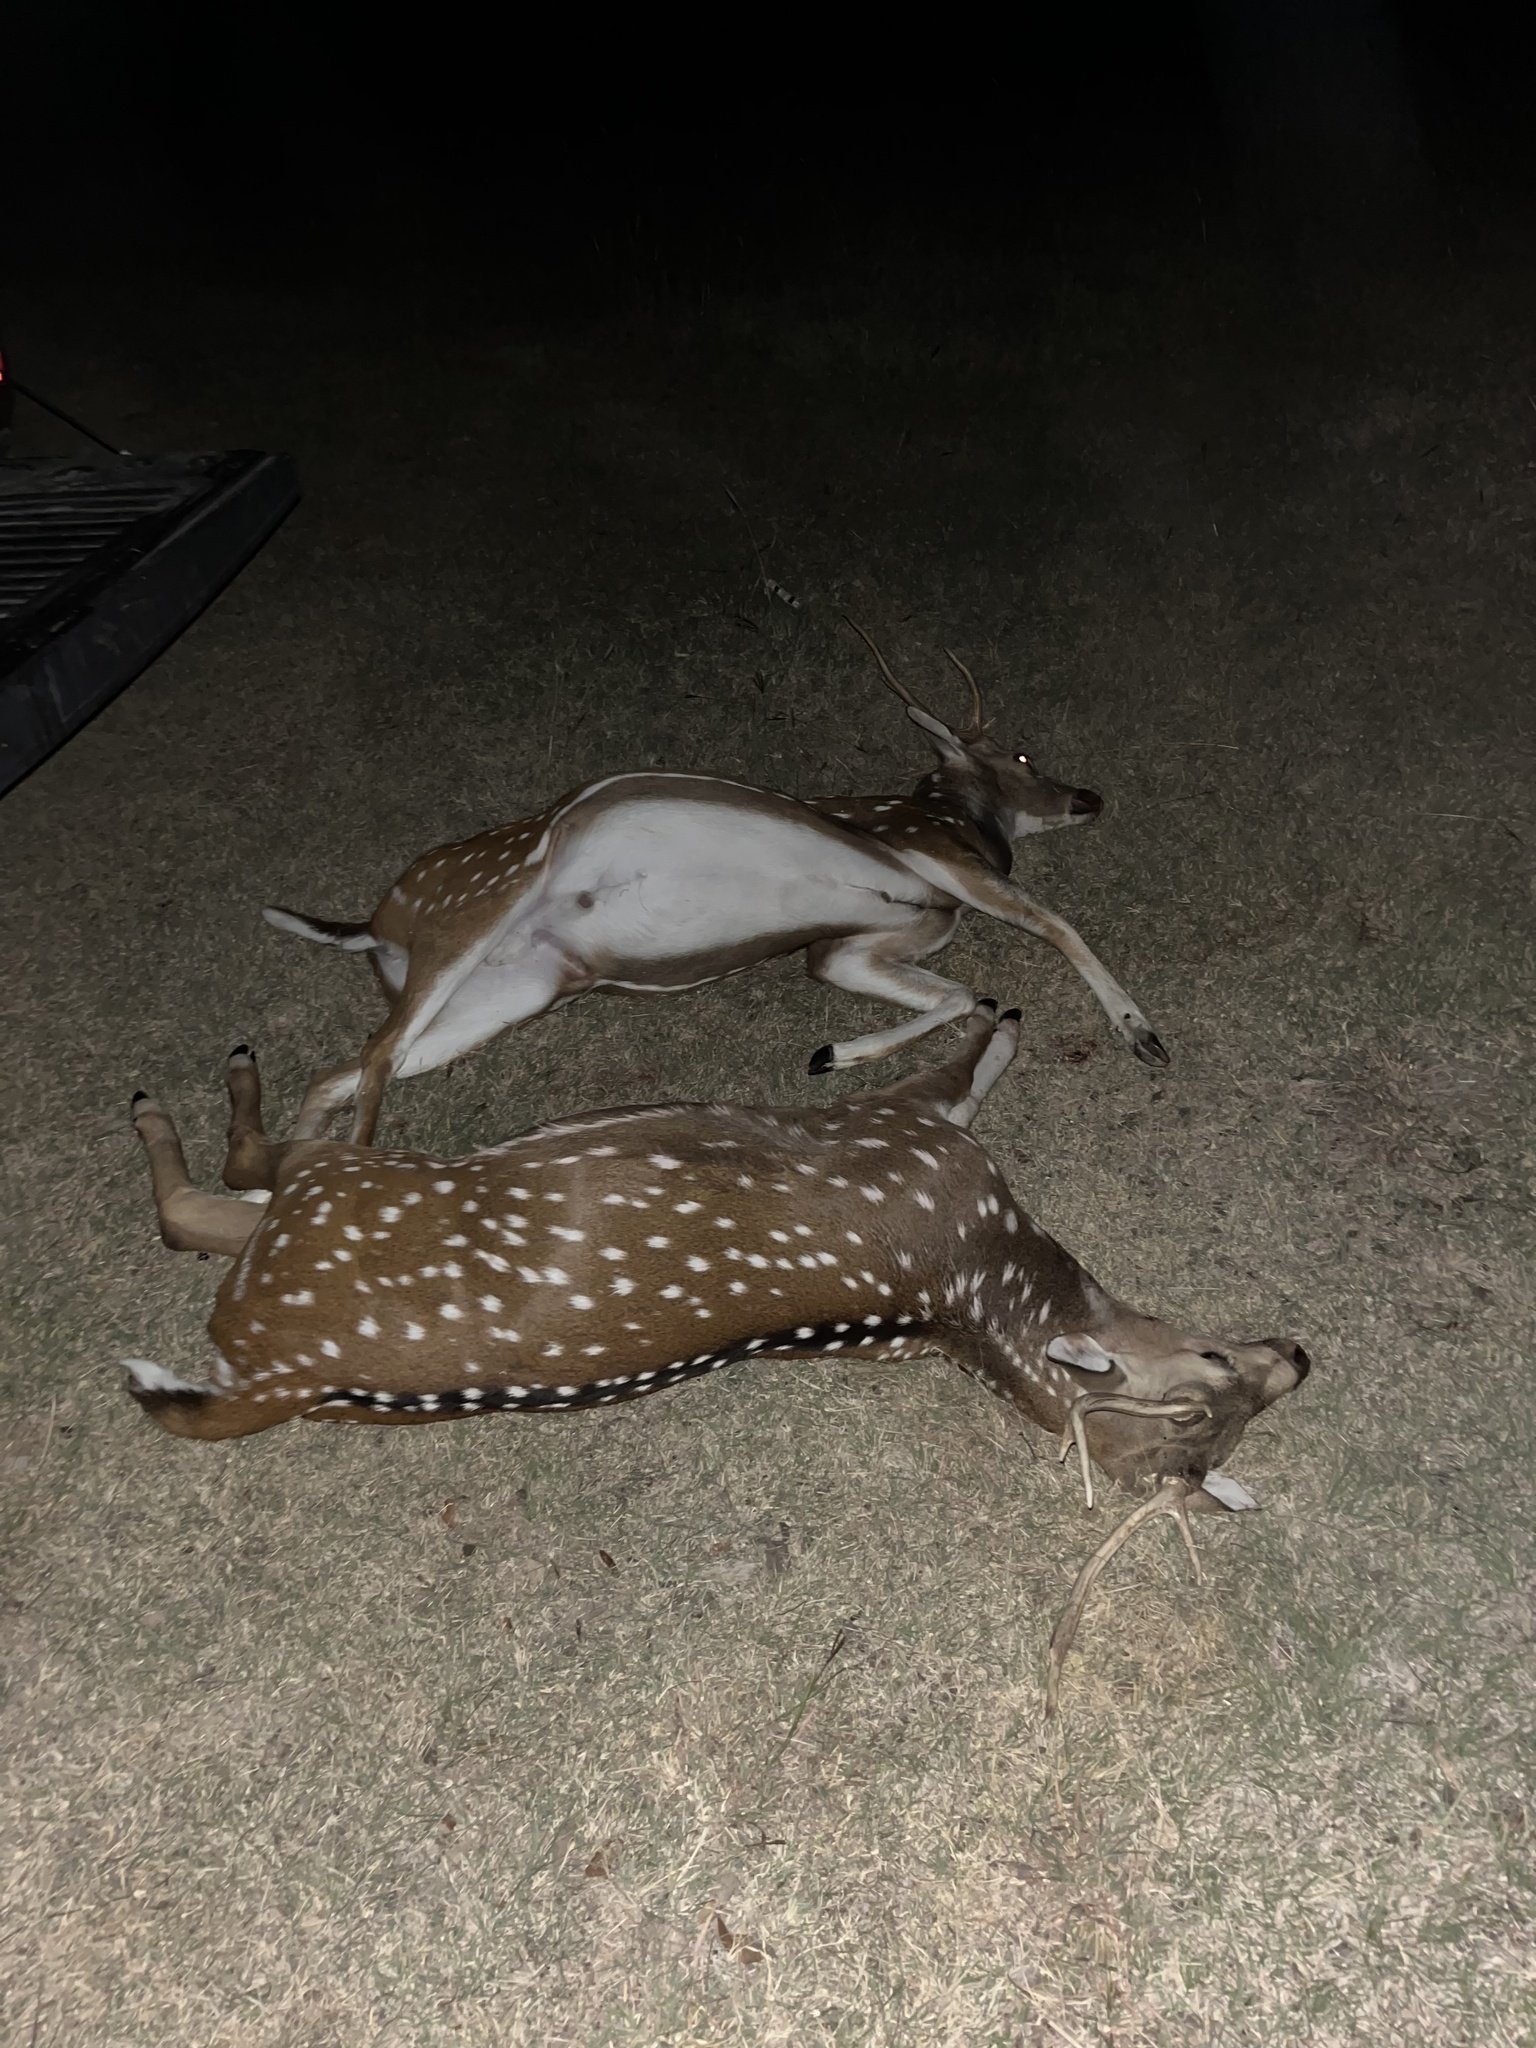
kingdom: Animalia
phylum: Chordata
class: Mammalia
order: Artiodactyla
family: Cervidae
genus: Axis
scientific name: Axis axis
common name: Chital
